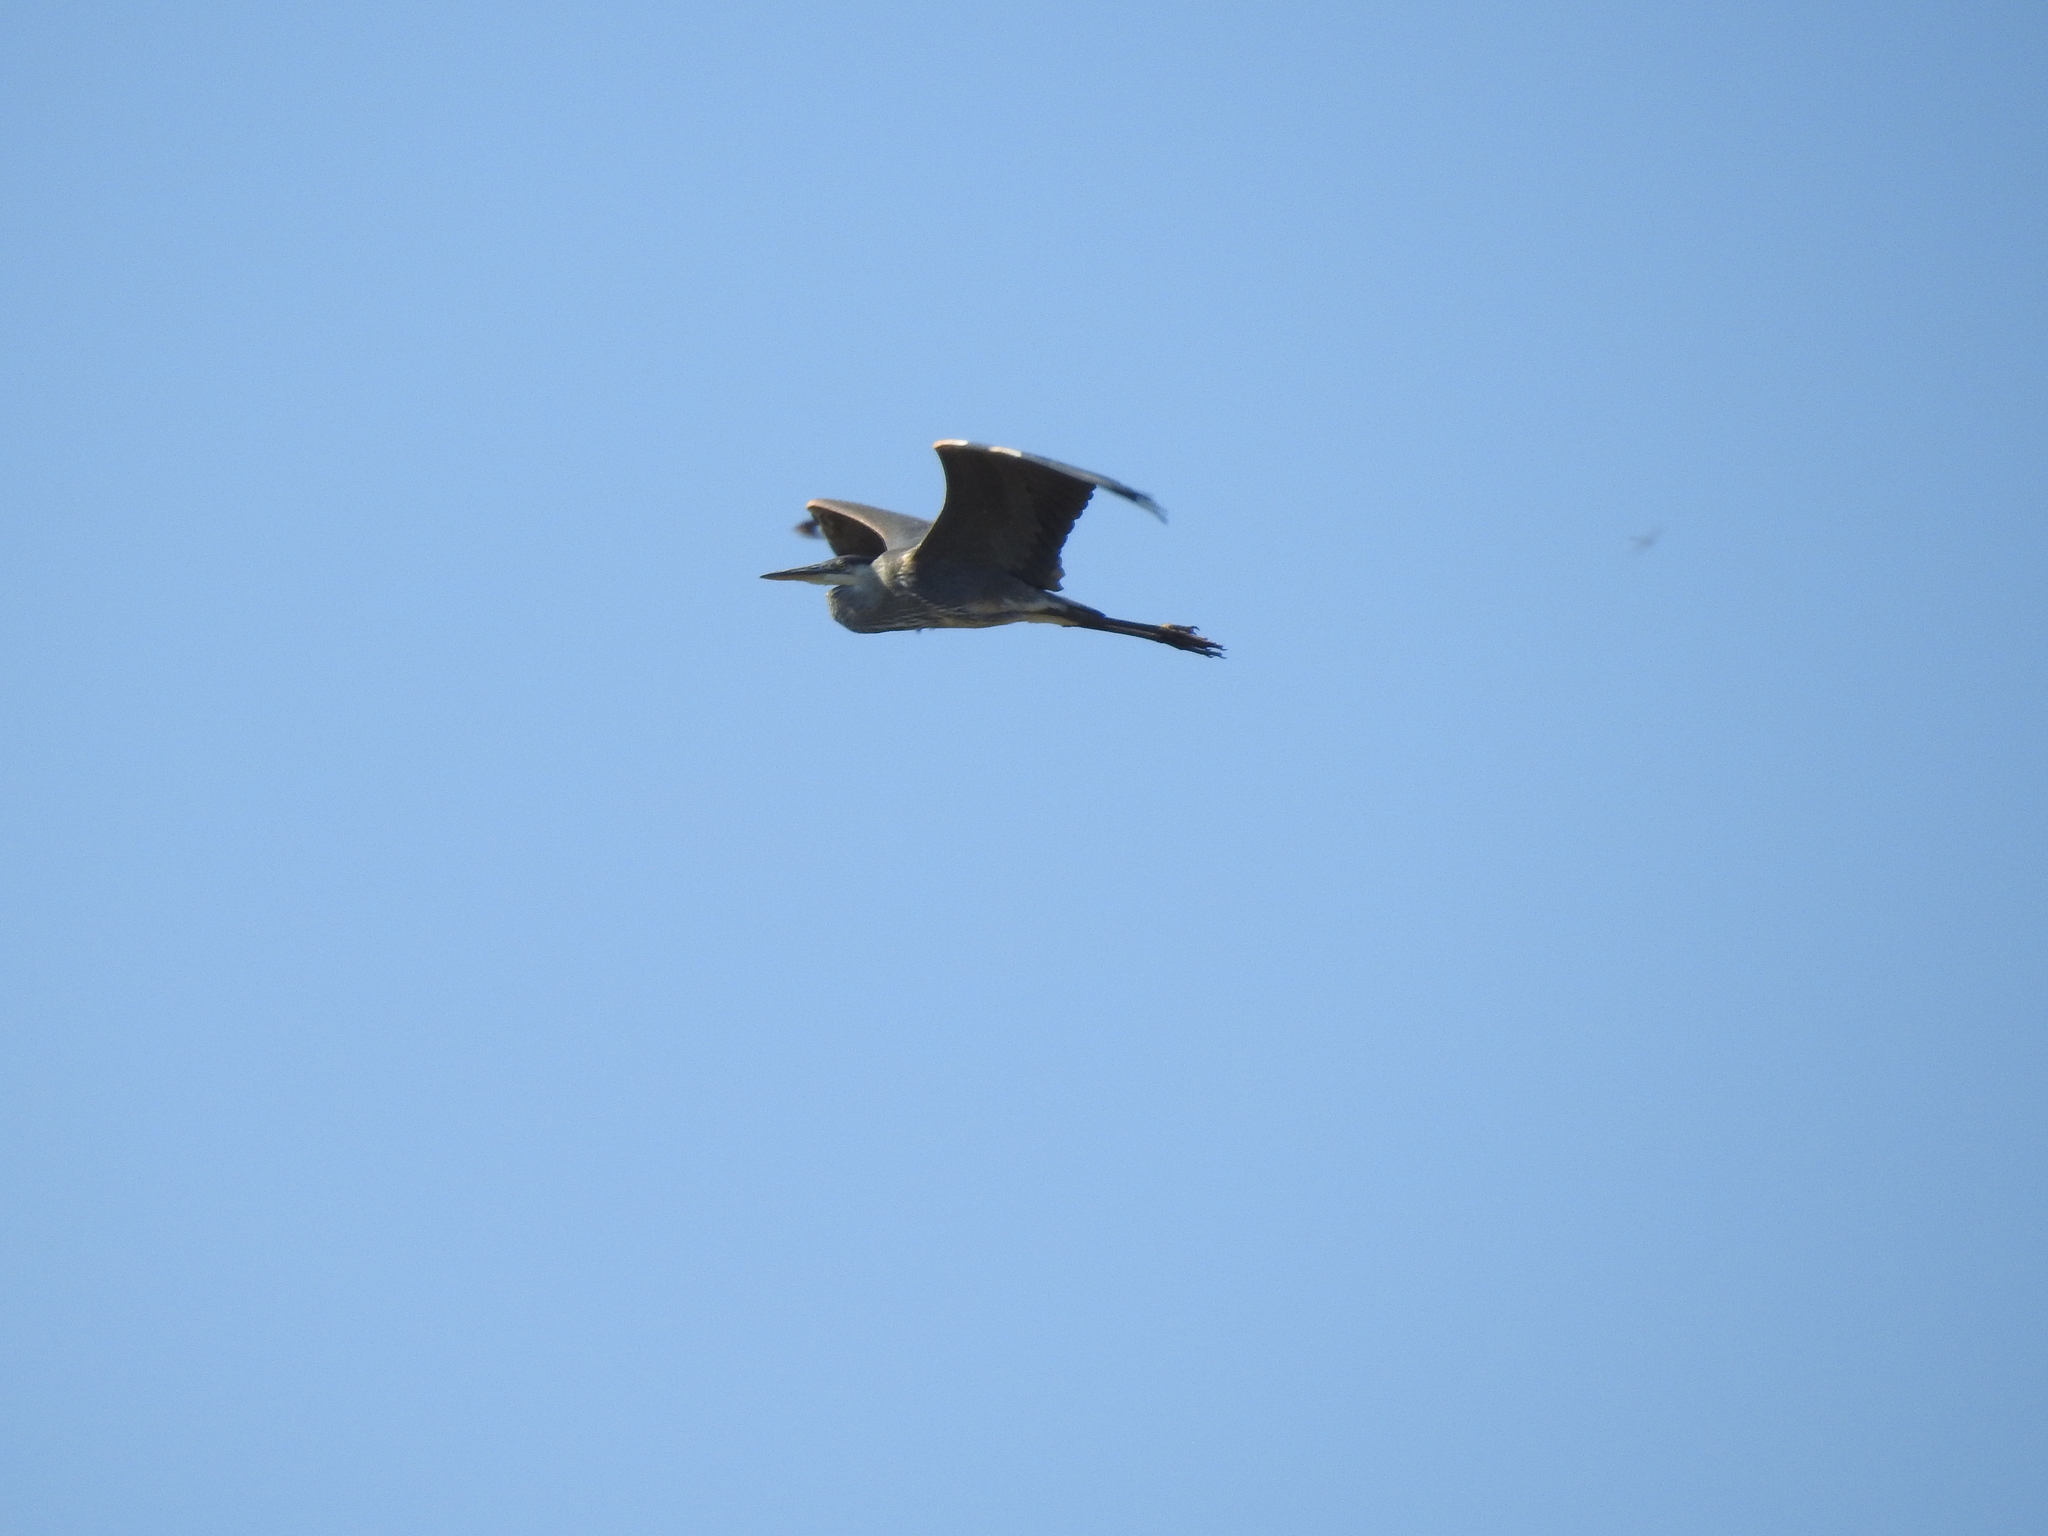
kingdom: Animalia
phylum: Chordata
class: Aves
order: Pelecaniformes
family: Ardeidae
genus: Ardea
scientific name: Ardea herodias
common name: Great blue heron
